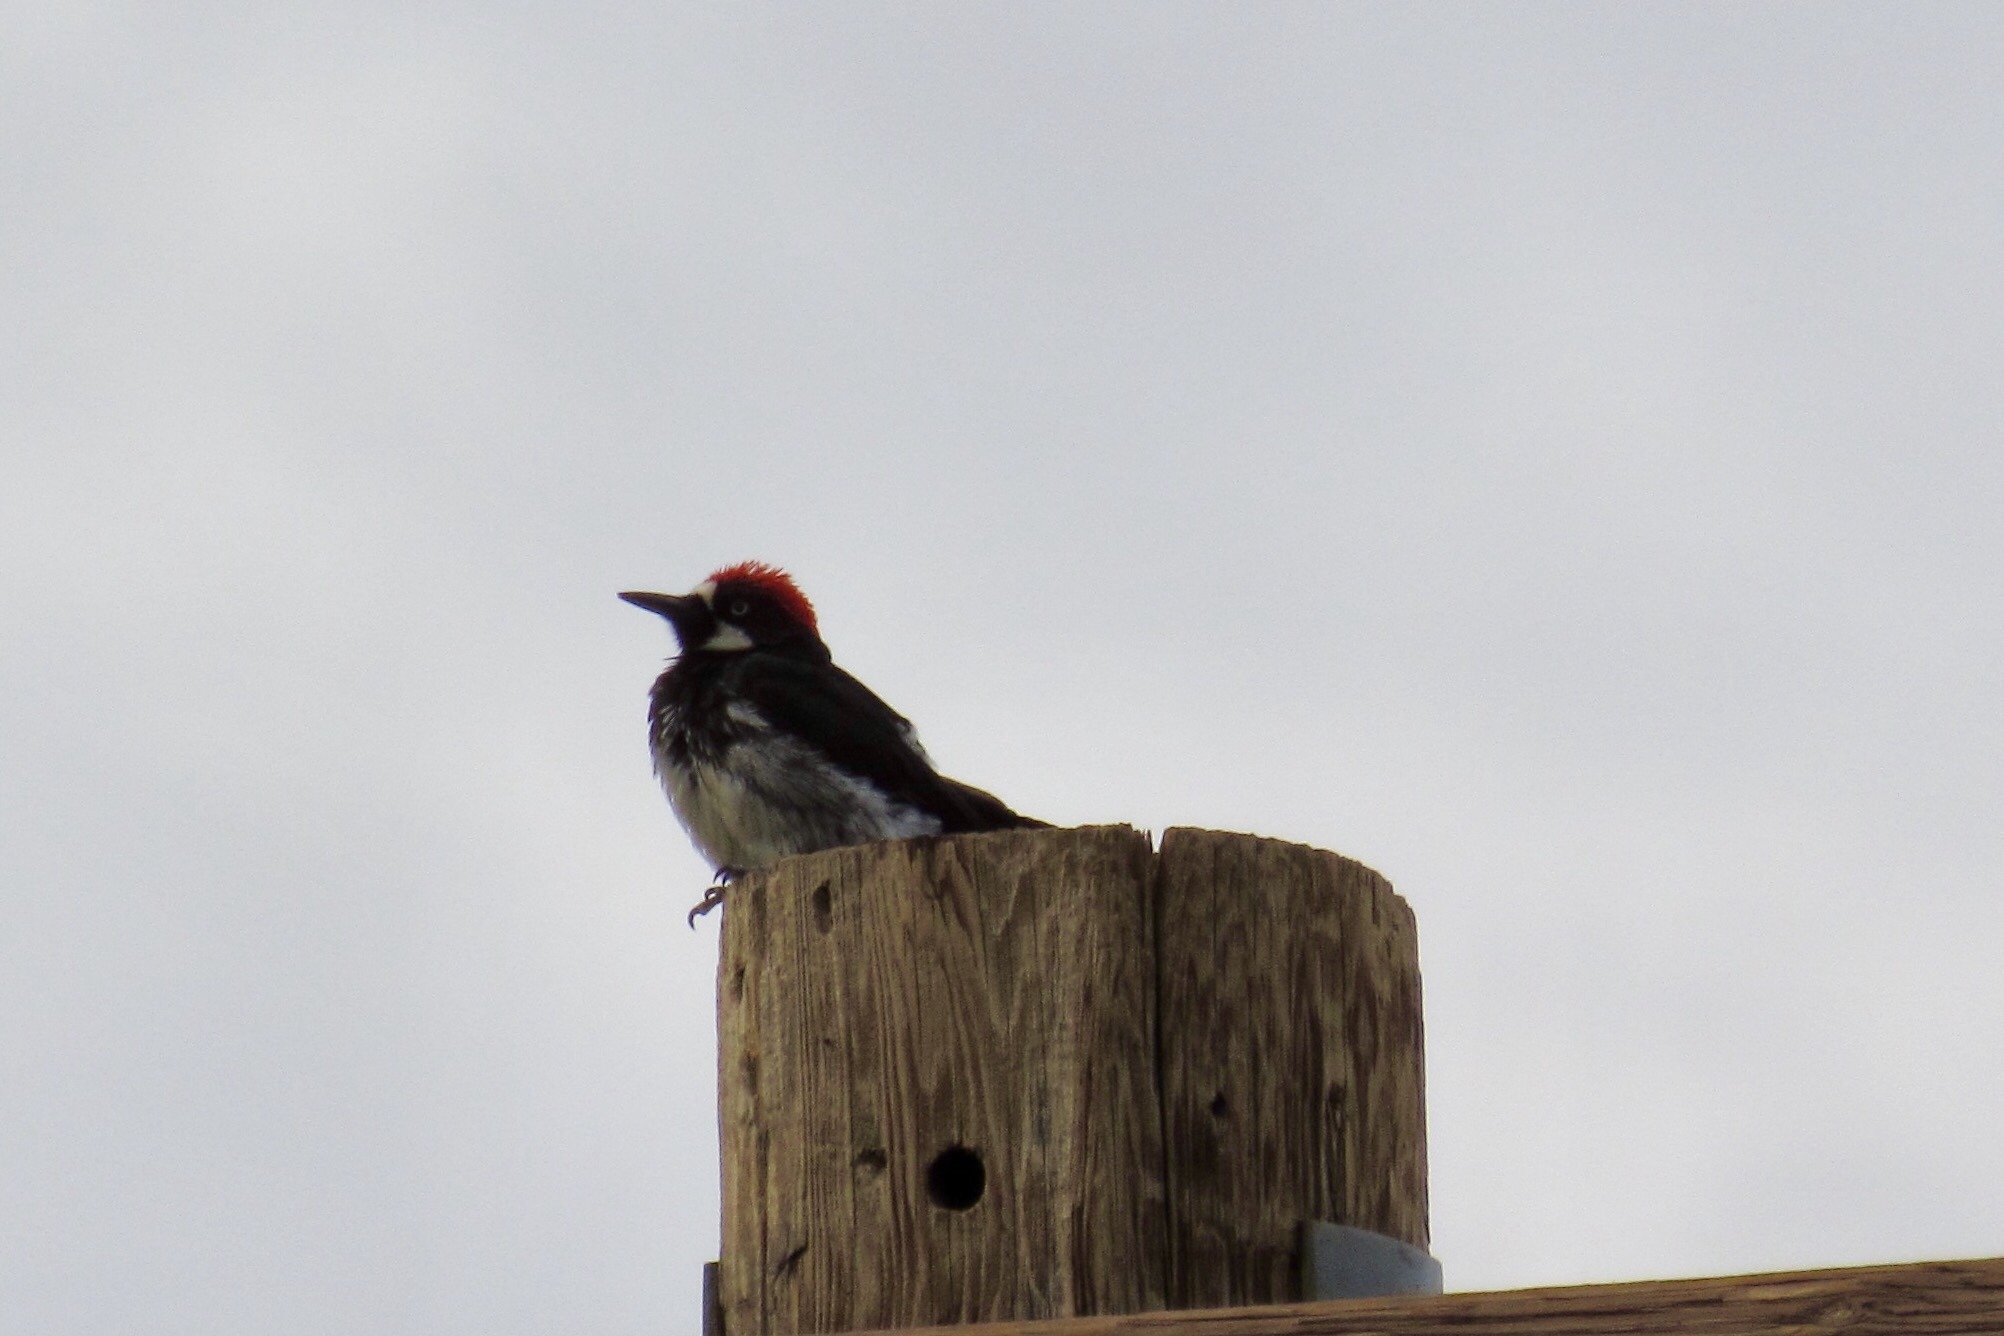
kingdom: Animalia
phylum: Chordata
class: Aves
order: Piciformes
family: Picidae
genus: Melanerpes
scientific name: Melanerpes formicivorus
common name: Acorn woodpecker
